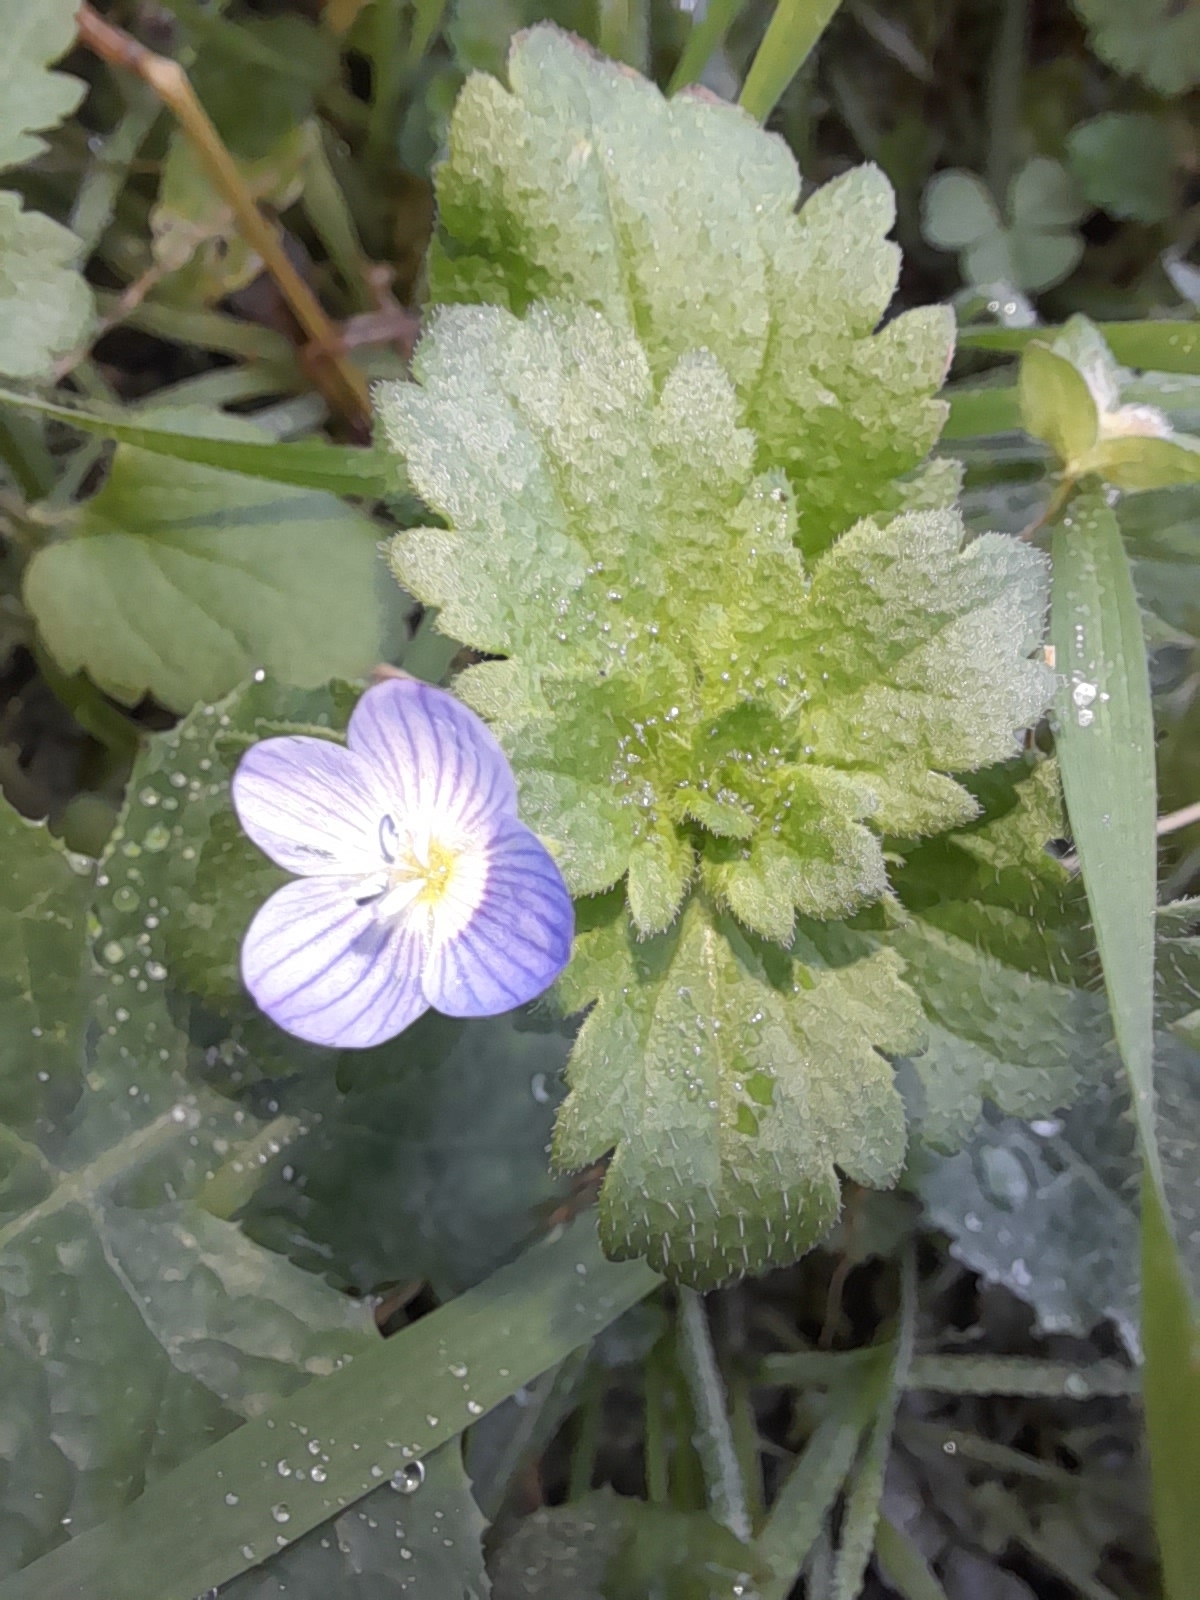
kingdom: Plantae
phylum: Tracheophyta
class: Magnoliopsida
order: Lamiales
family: Plantaginaceae
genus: Veronica
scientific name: Veronica persica
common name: Common field-speedwell
